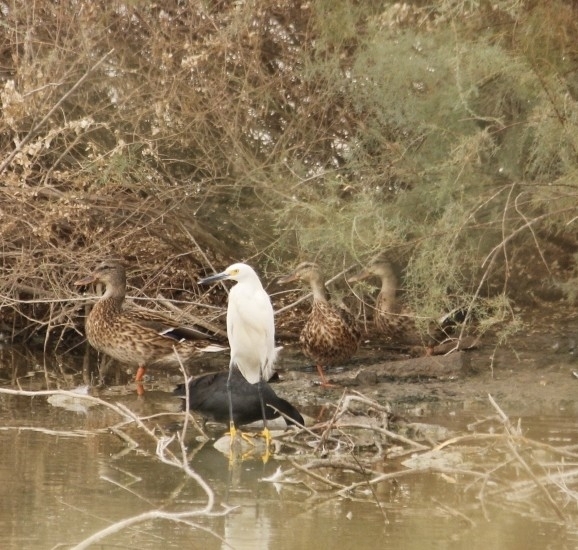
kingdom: Animalia
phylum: Chordata
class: Aves
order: Pelecaniformes
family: Ardeidae
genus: Egretta
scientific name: Egretta thula
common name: Snowy egret
